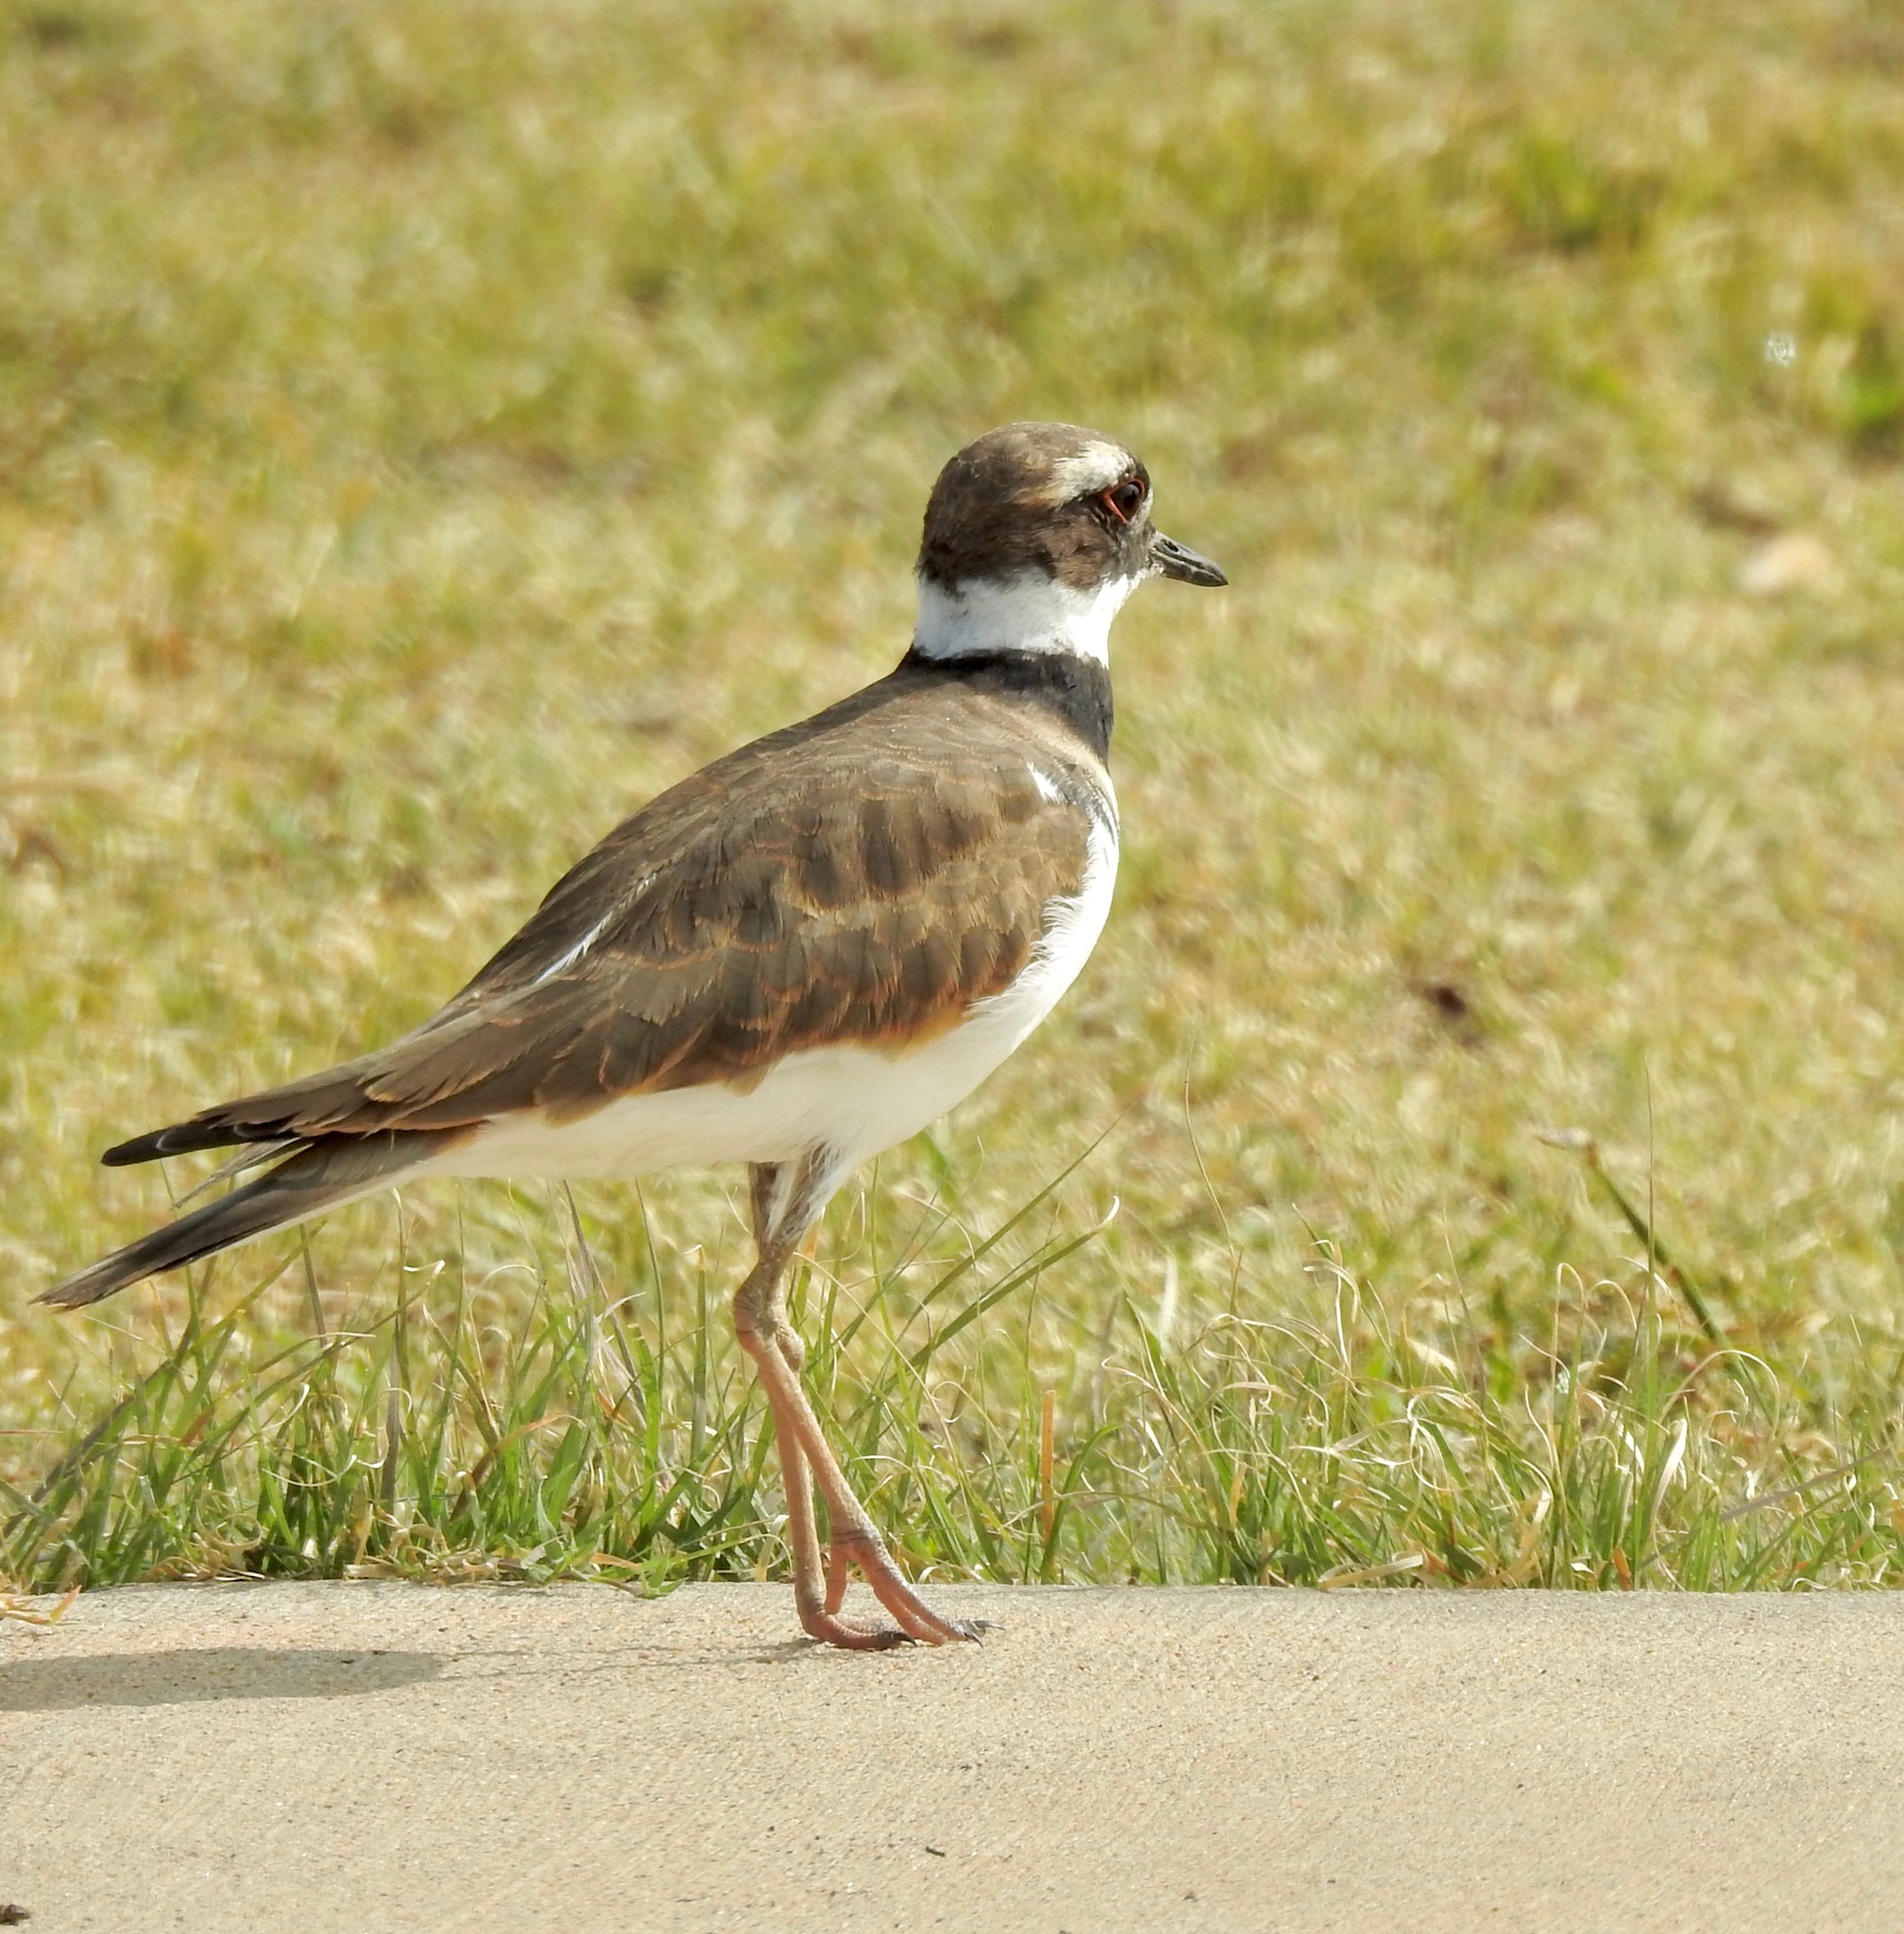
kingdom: Animalia
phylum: Chordata
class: Aves
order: Charadriiformes
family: Charadriidae
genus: Charadrius
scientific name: Charadrius vociferus
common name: Killdeer
